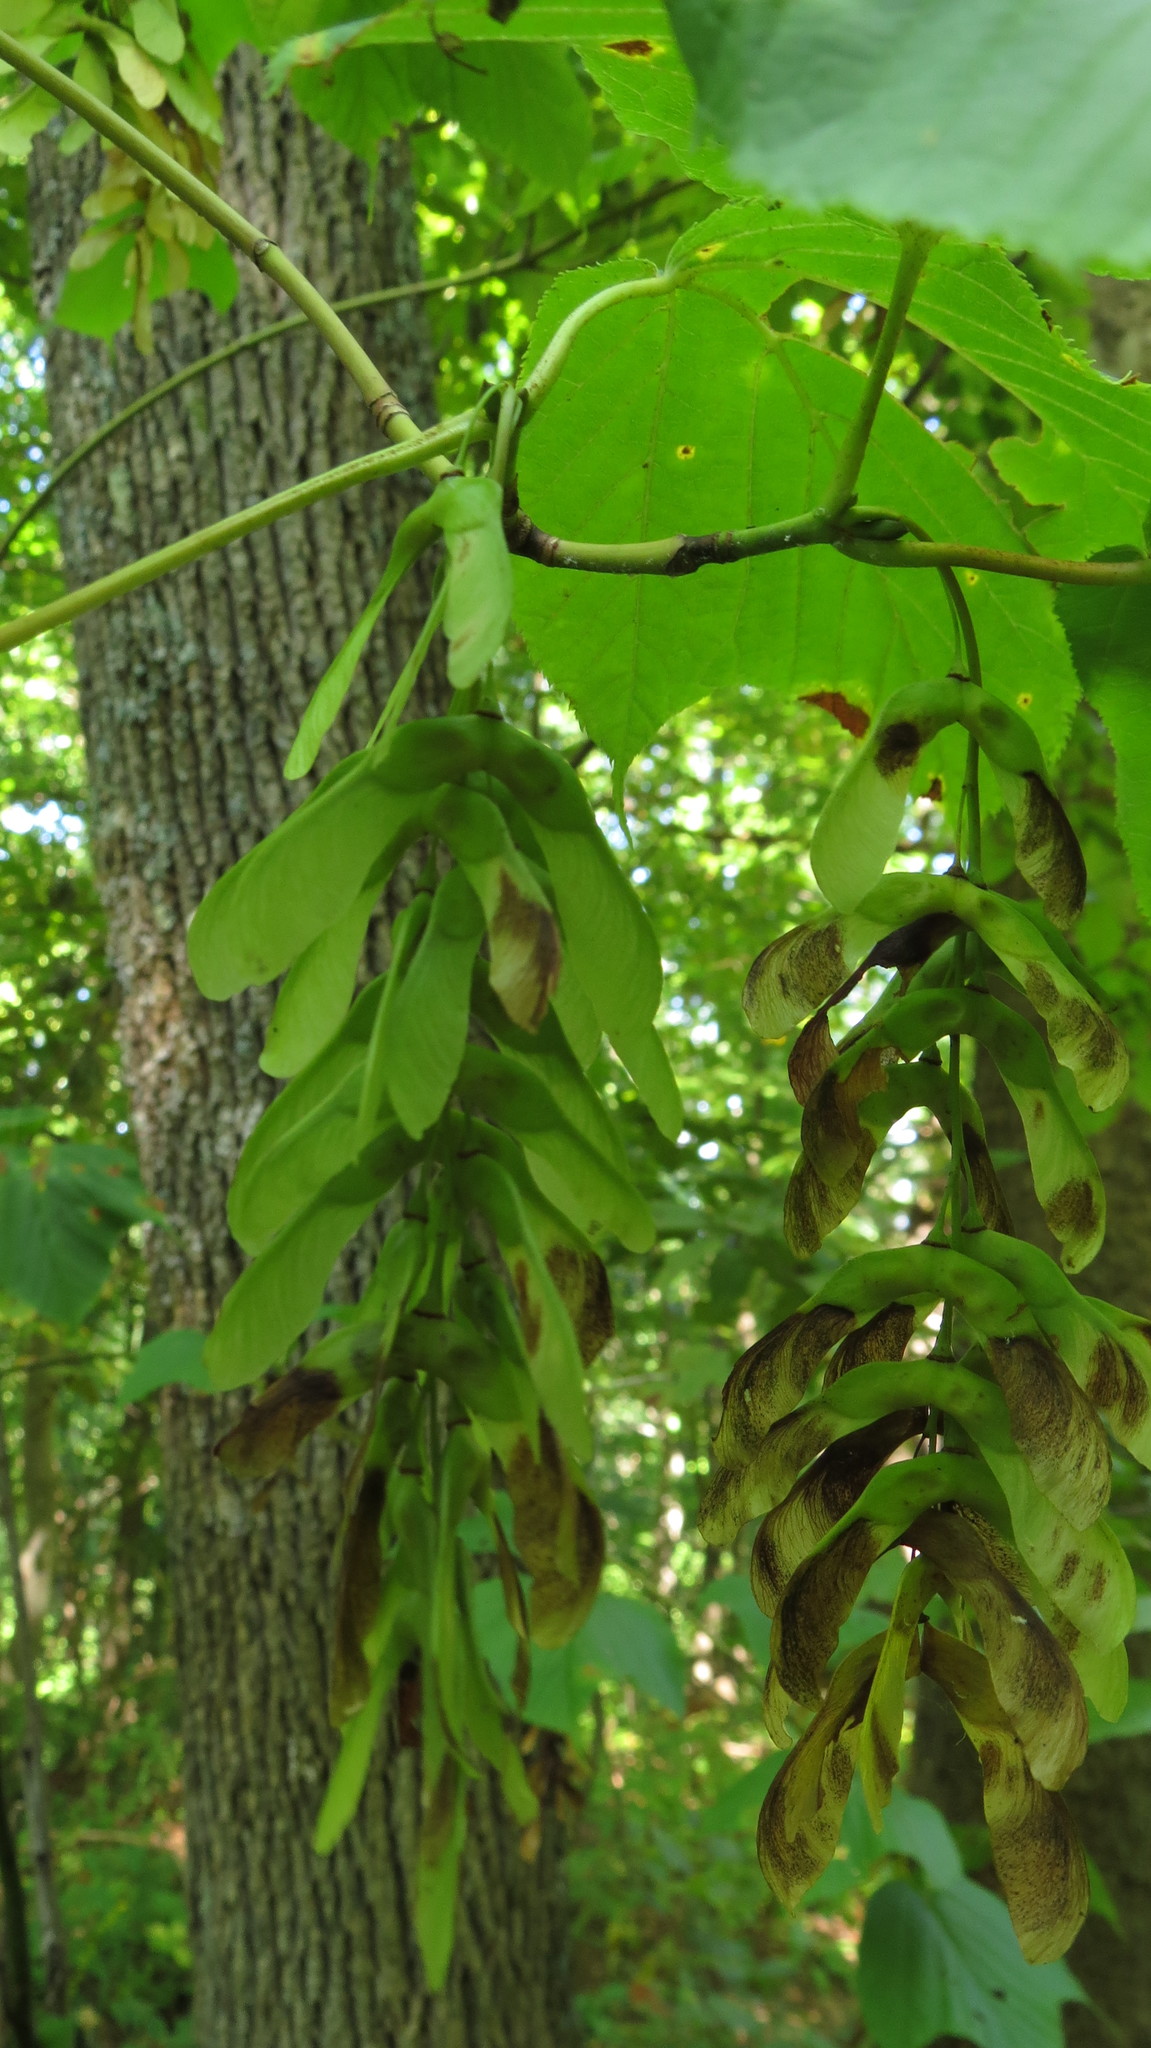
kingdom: Plantae
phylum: Tracheophyta
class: Magnoliopsida
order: Sapindales
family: Sapindaceae
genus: Acer
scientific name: Acer pensylvanicum
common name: Moosewood
